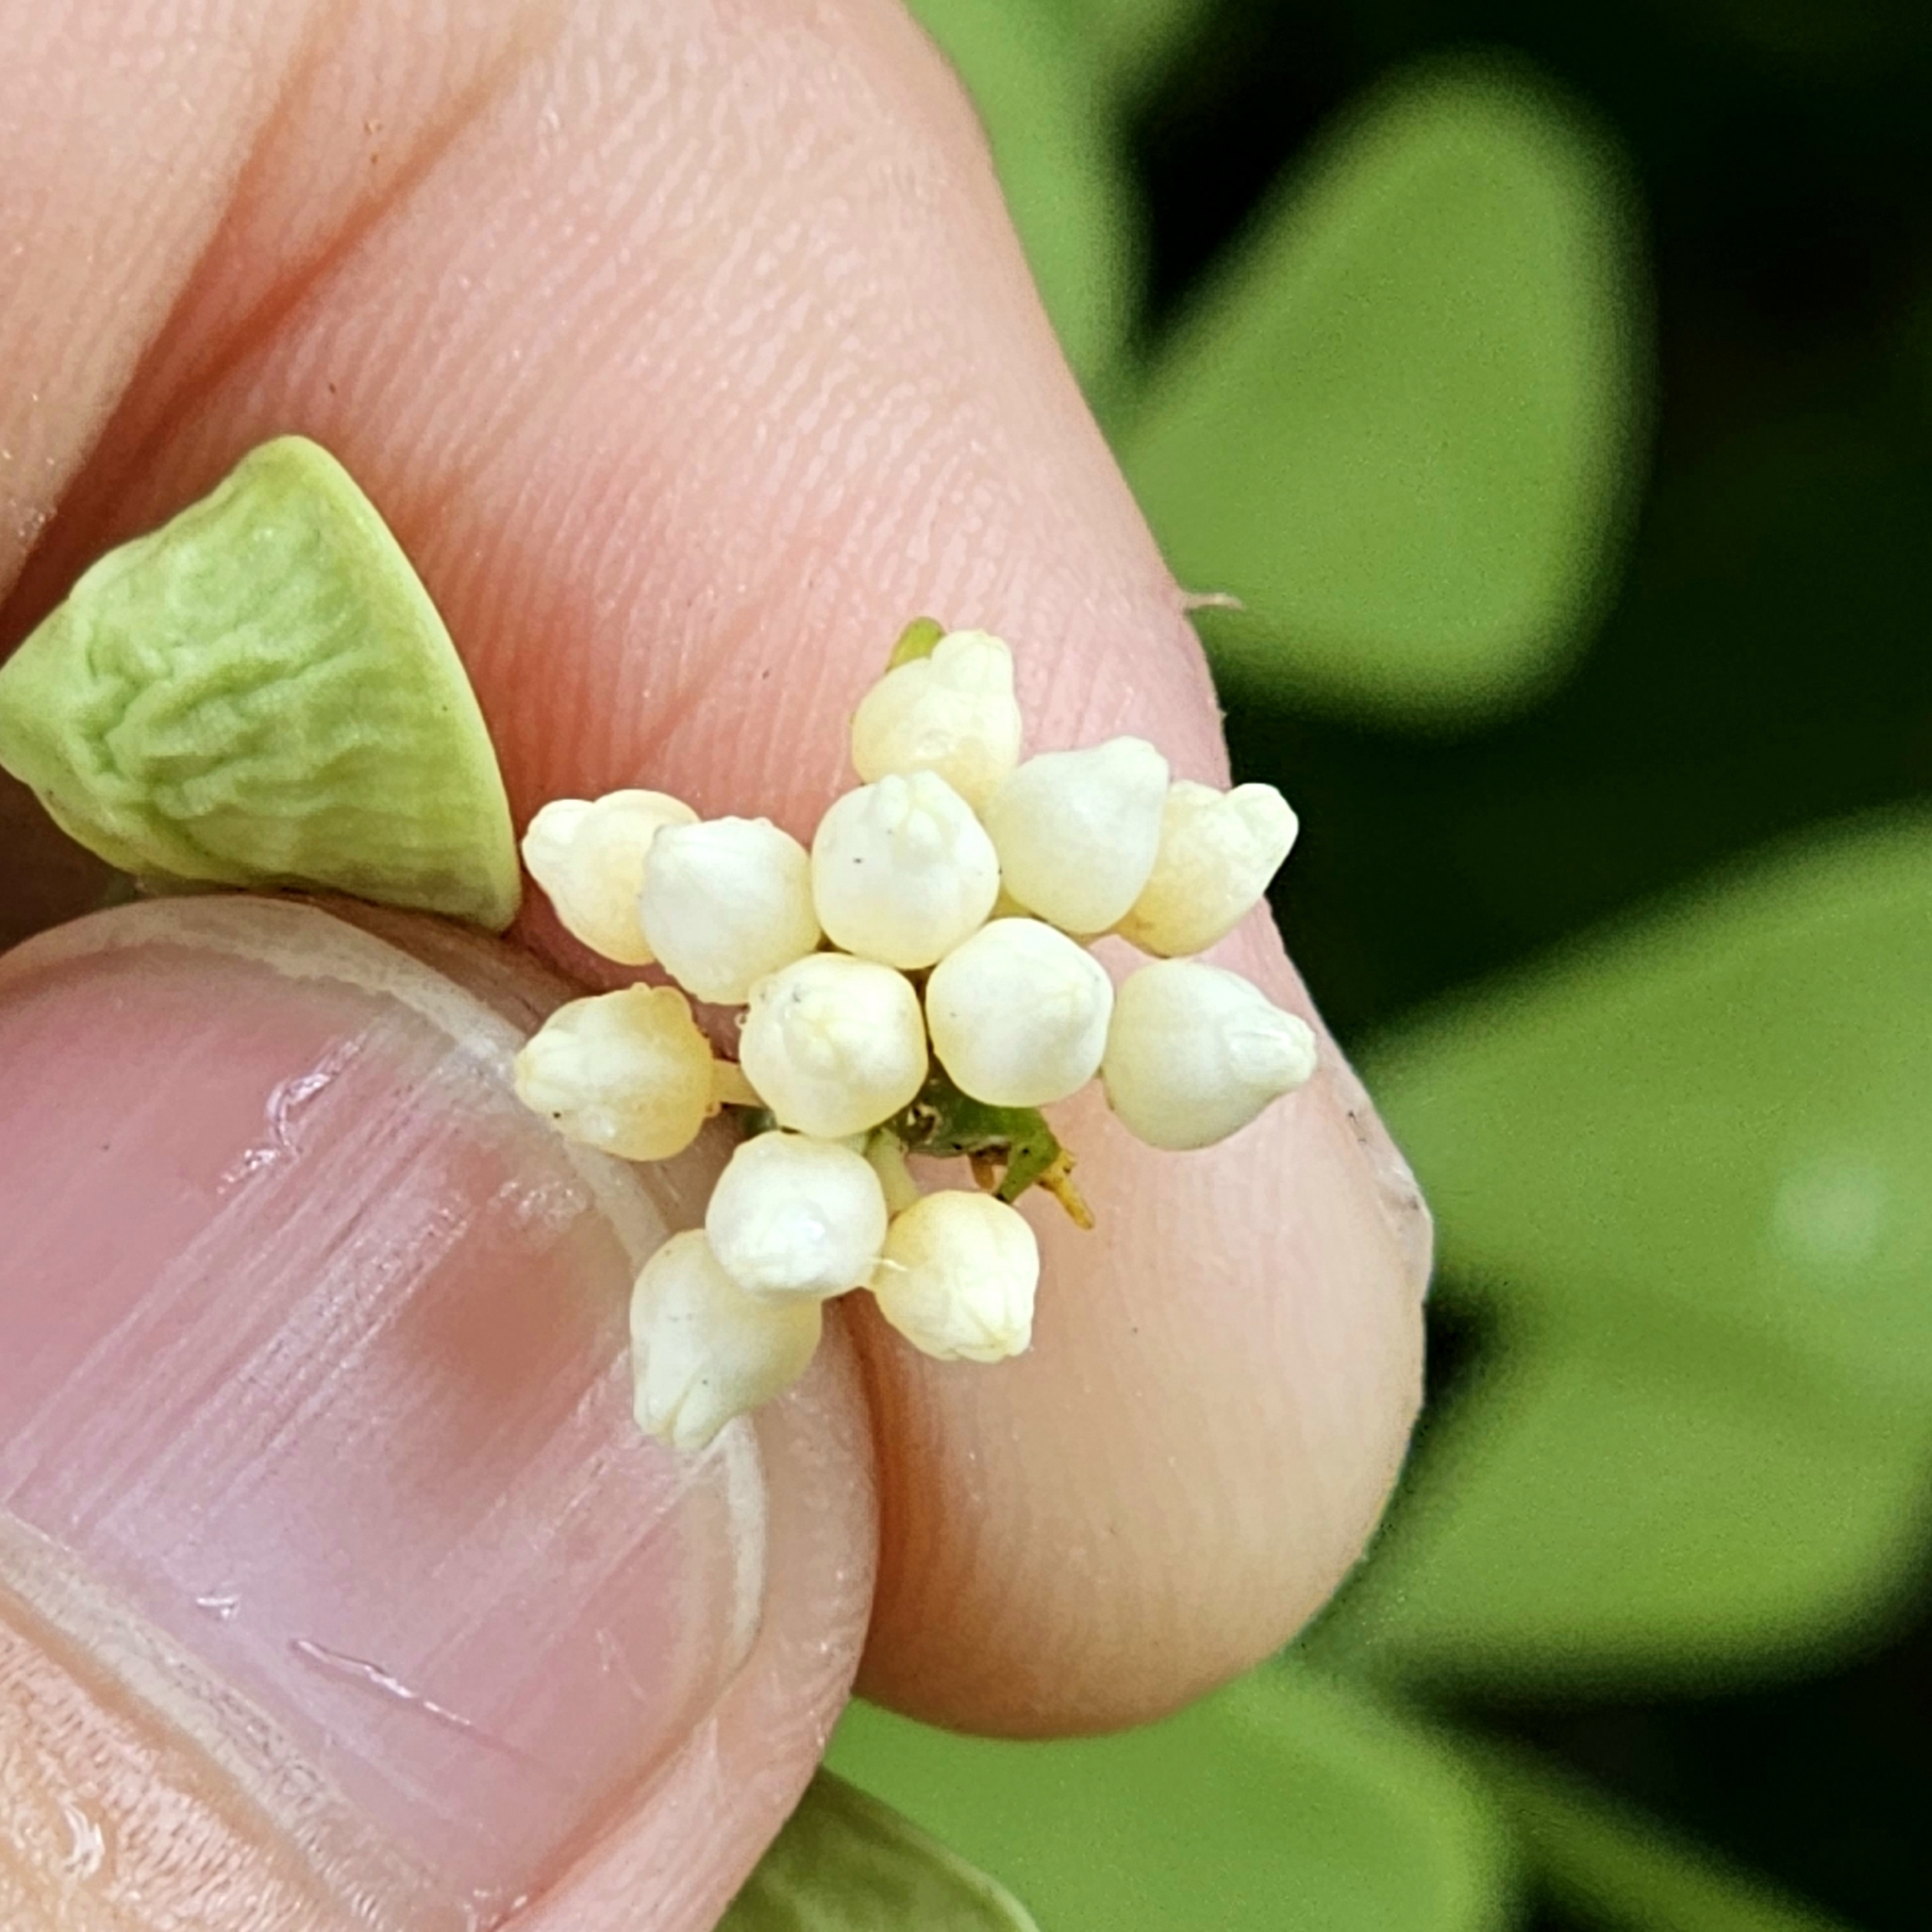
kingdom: Plantae
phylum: Tracheophyta
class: Magnoliopsida
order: Gentianales
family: Apocynaceae
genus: Dischidia
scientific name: Dischidia oiantha
